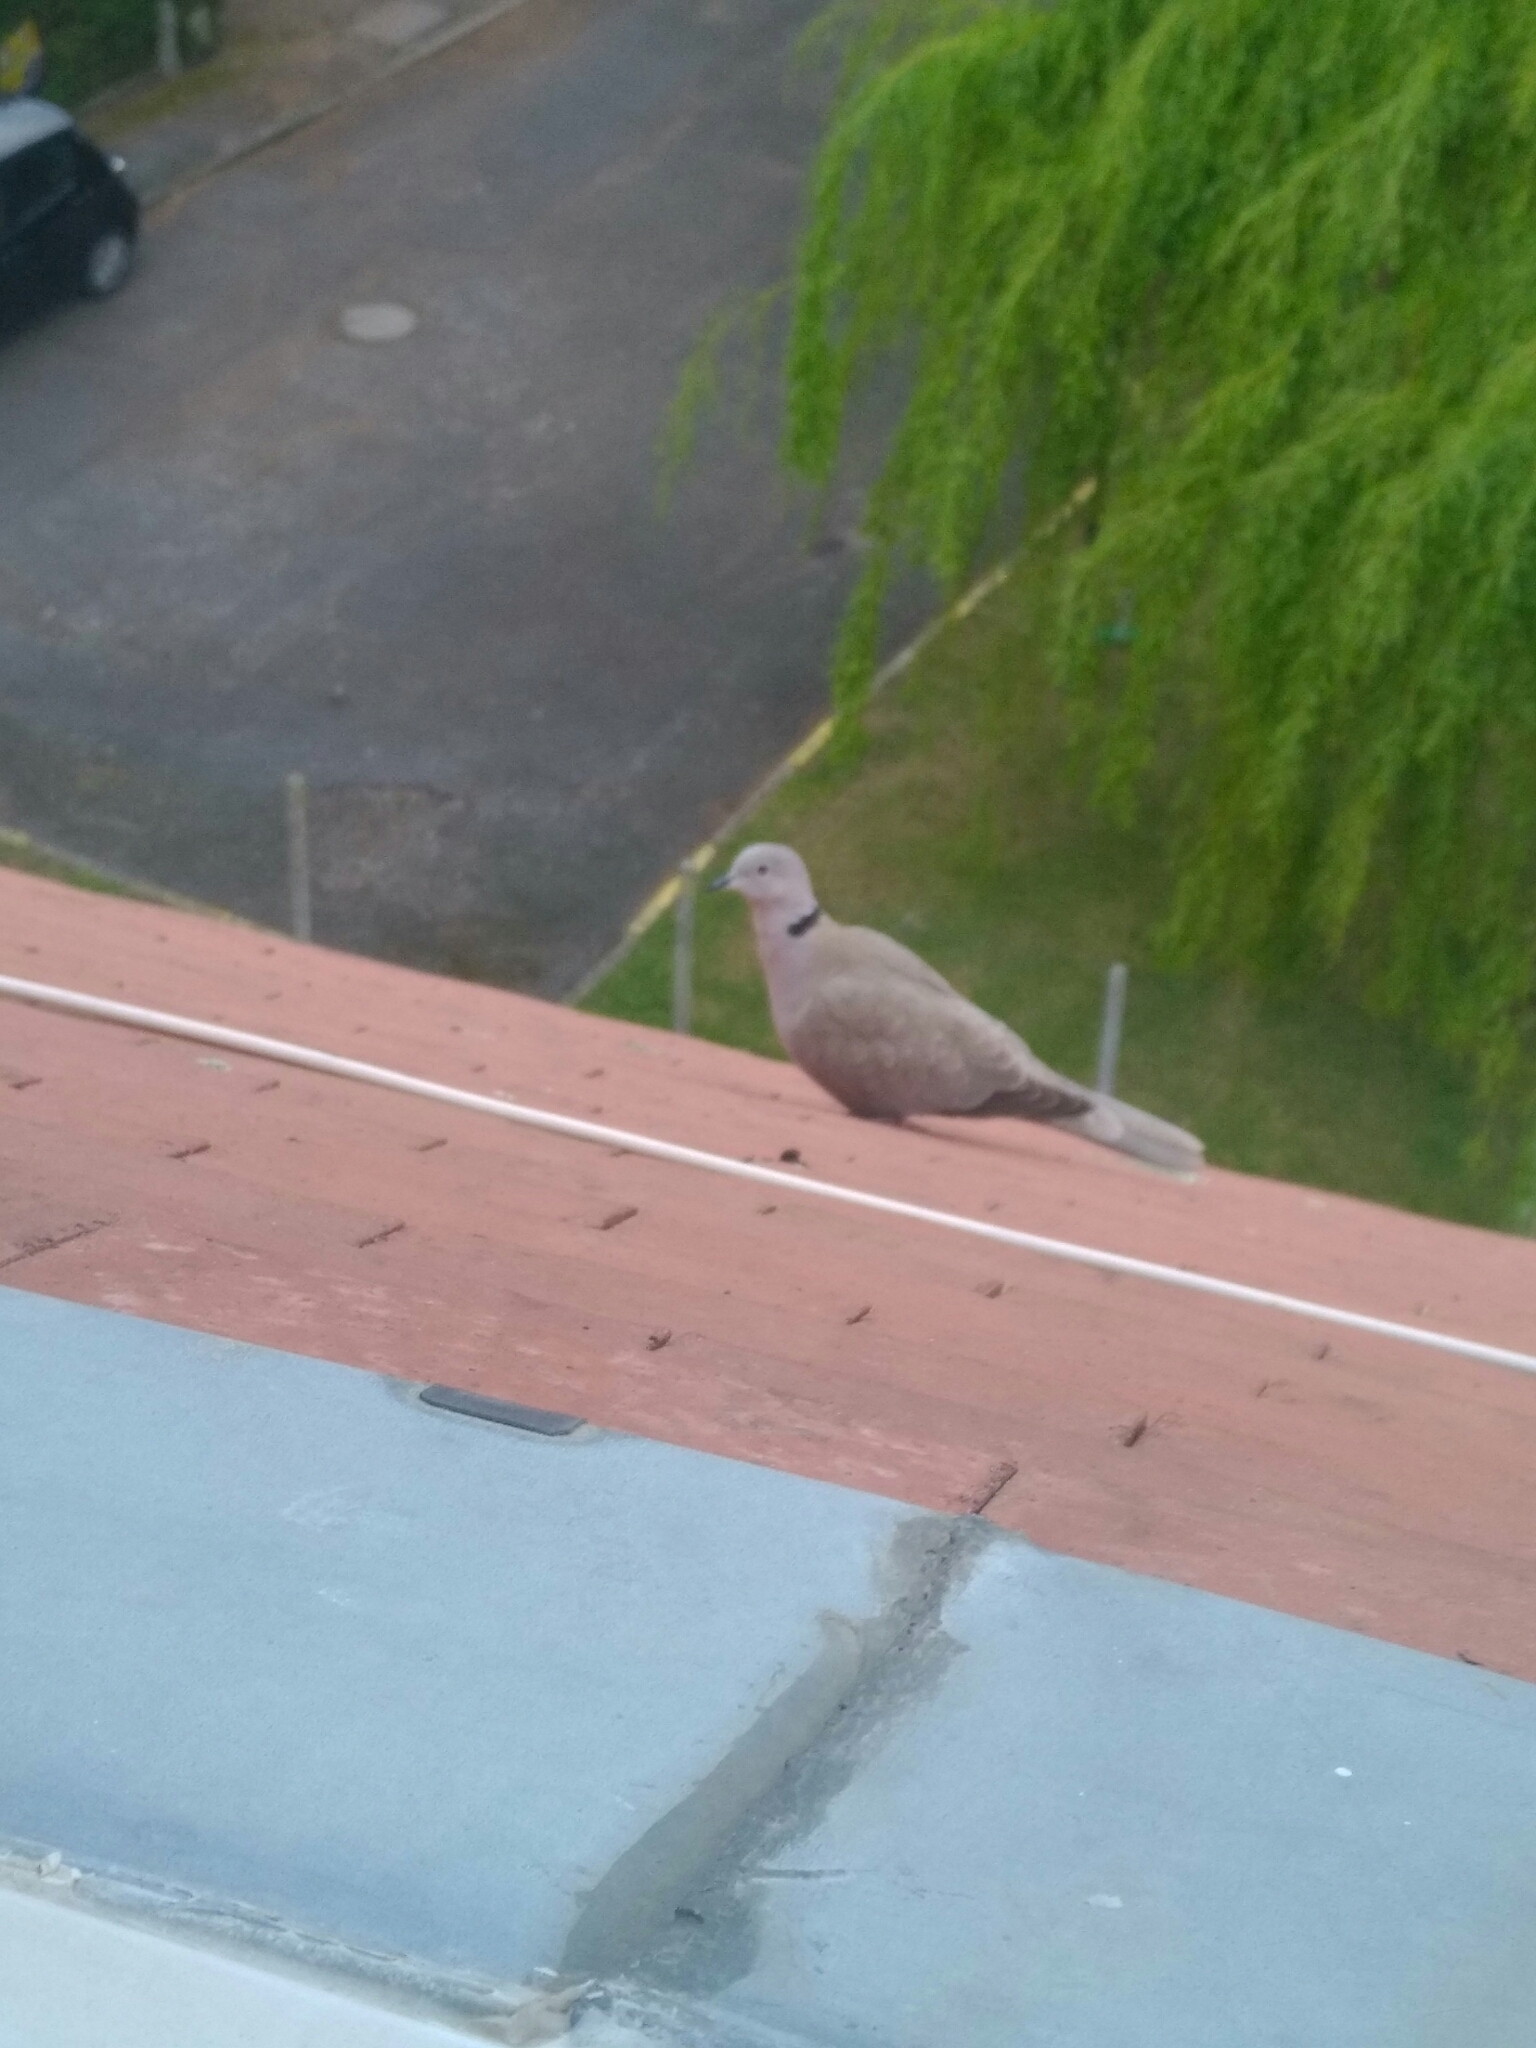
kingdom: Animalia
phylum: Chordata
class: Aves
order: Columbiformes
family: Columbidae
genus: Streptopelia
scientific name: Streptopelia decaocto
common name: Eurasian collared dove
